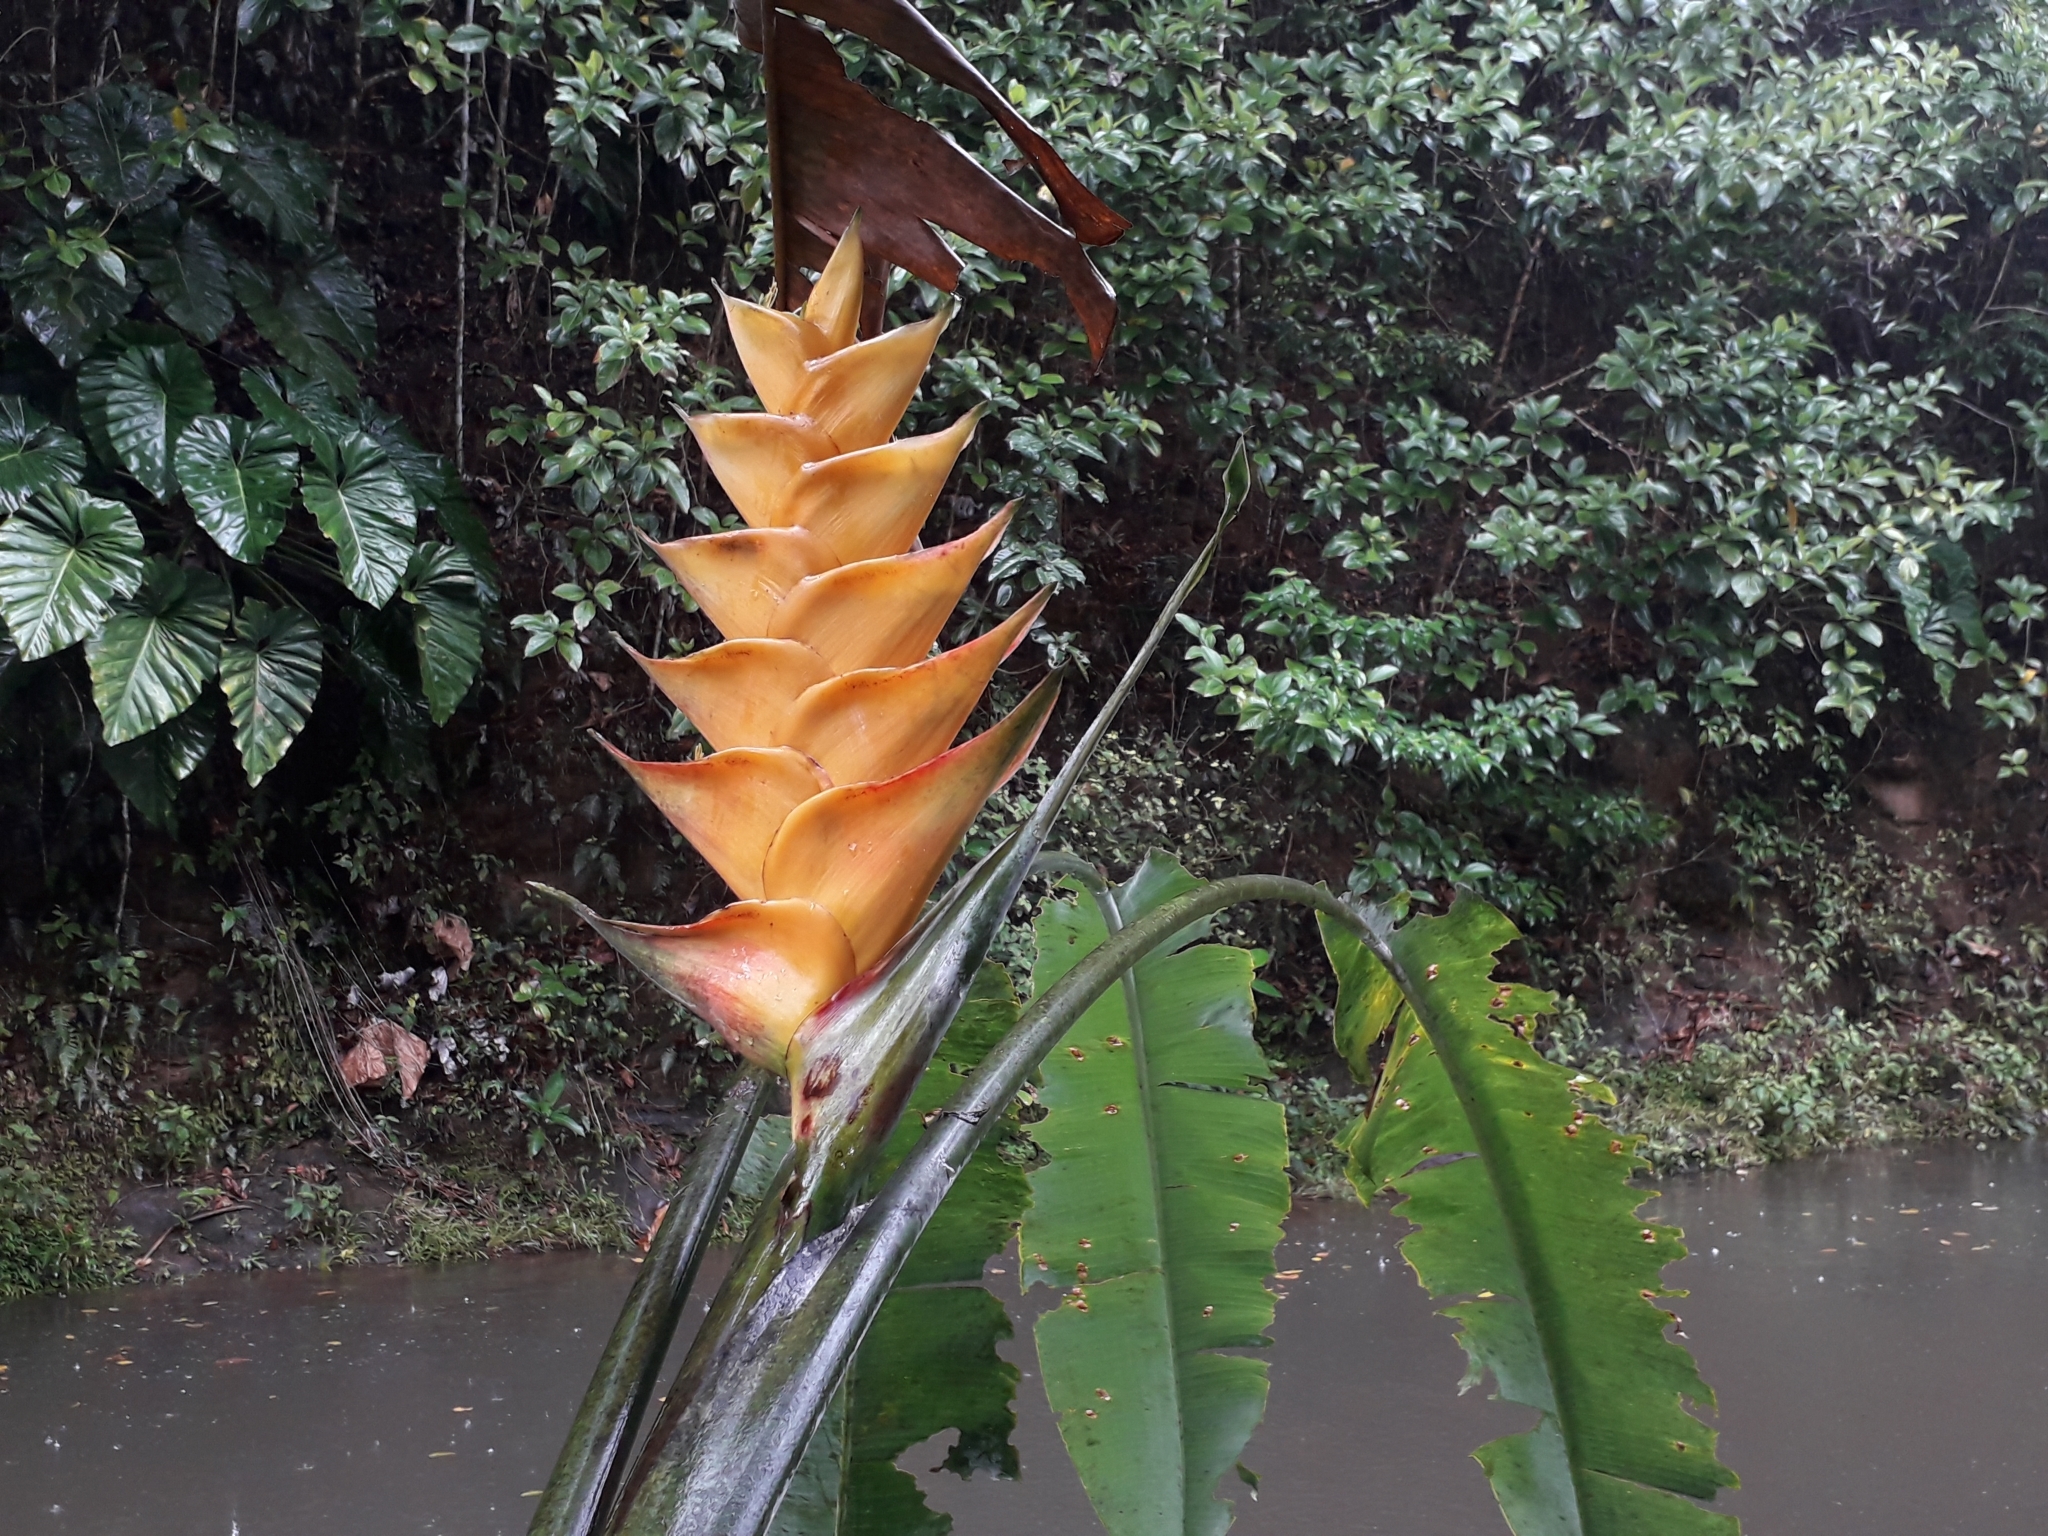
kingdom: Plantae
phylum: Tracheophyta
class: Liliopsida
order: Zingiberales
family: Heliconiaceae
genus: Heliconia
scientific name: Heliconia caribaea
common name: Wild plantain
